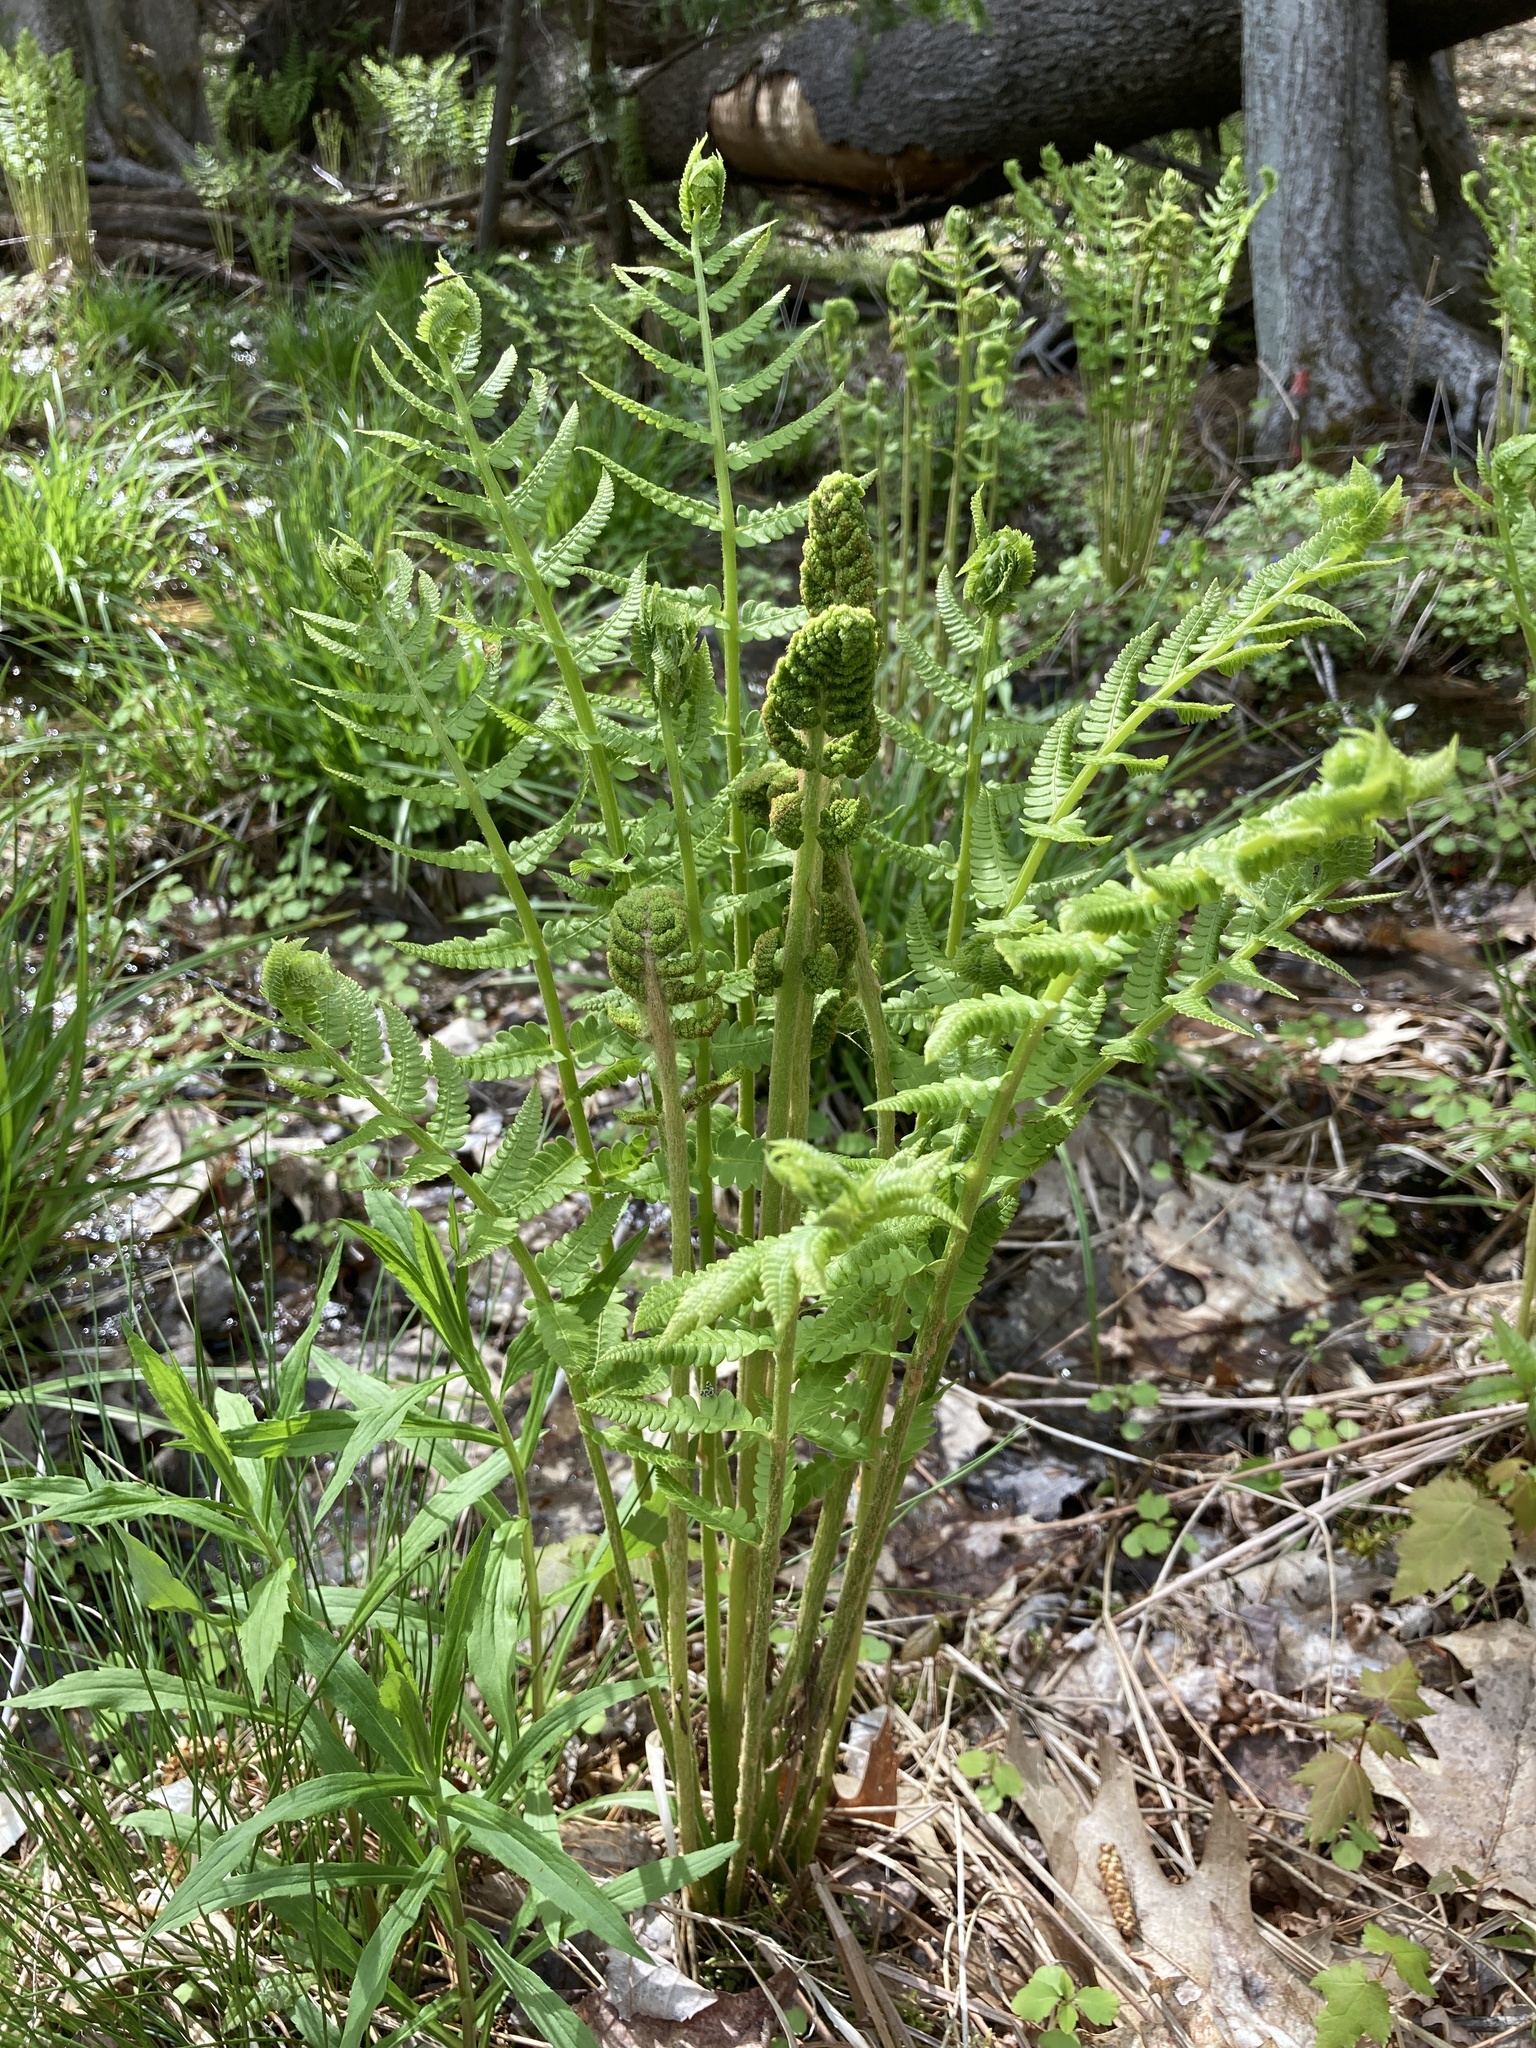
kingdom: Plantae
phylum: Tracheophyta
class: Polypodiopsida
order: Osmundales
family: Osmundaceae
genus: Osmundastrum
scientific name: Osmundastrum cinnamomeum
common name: Cinnamon fern
